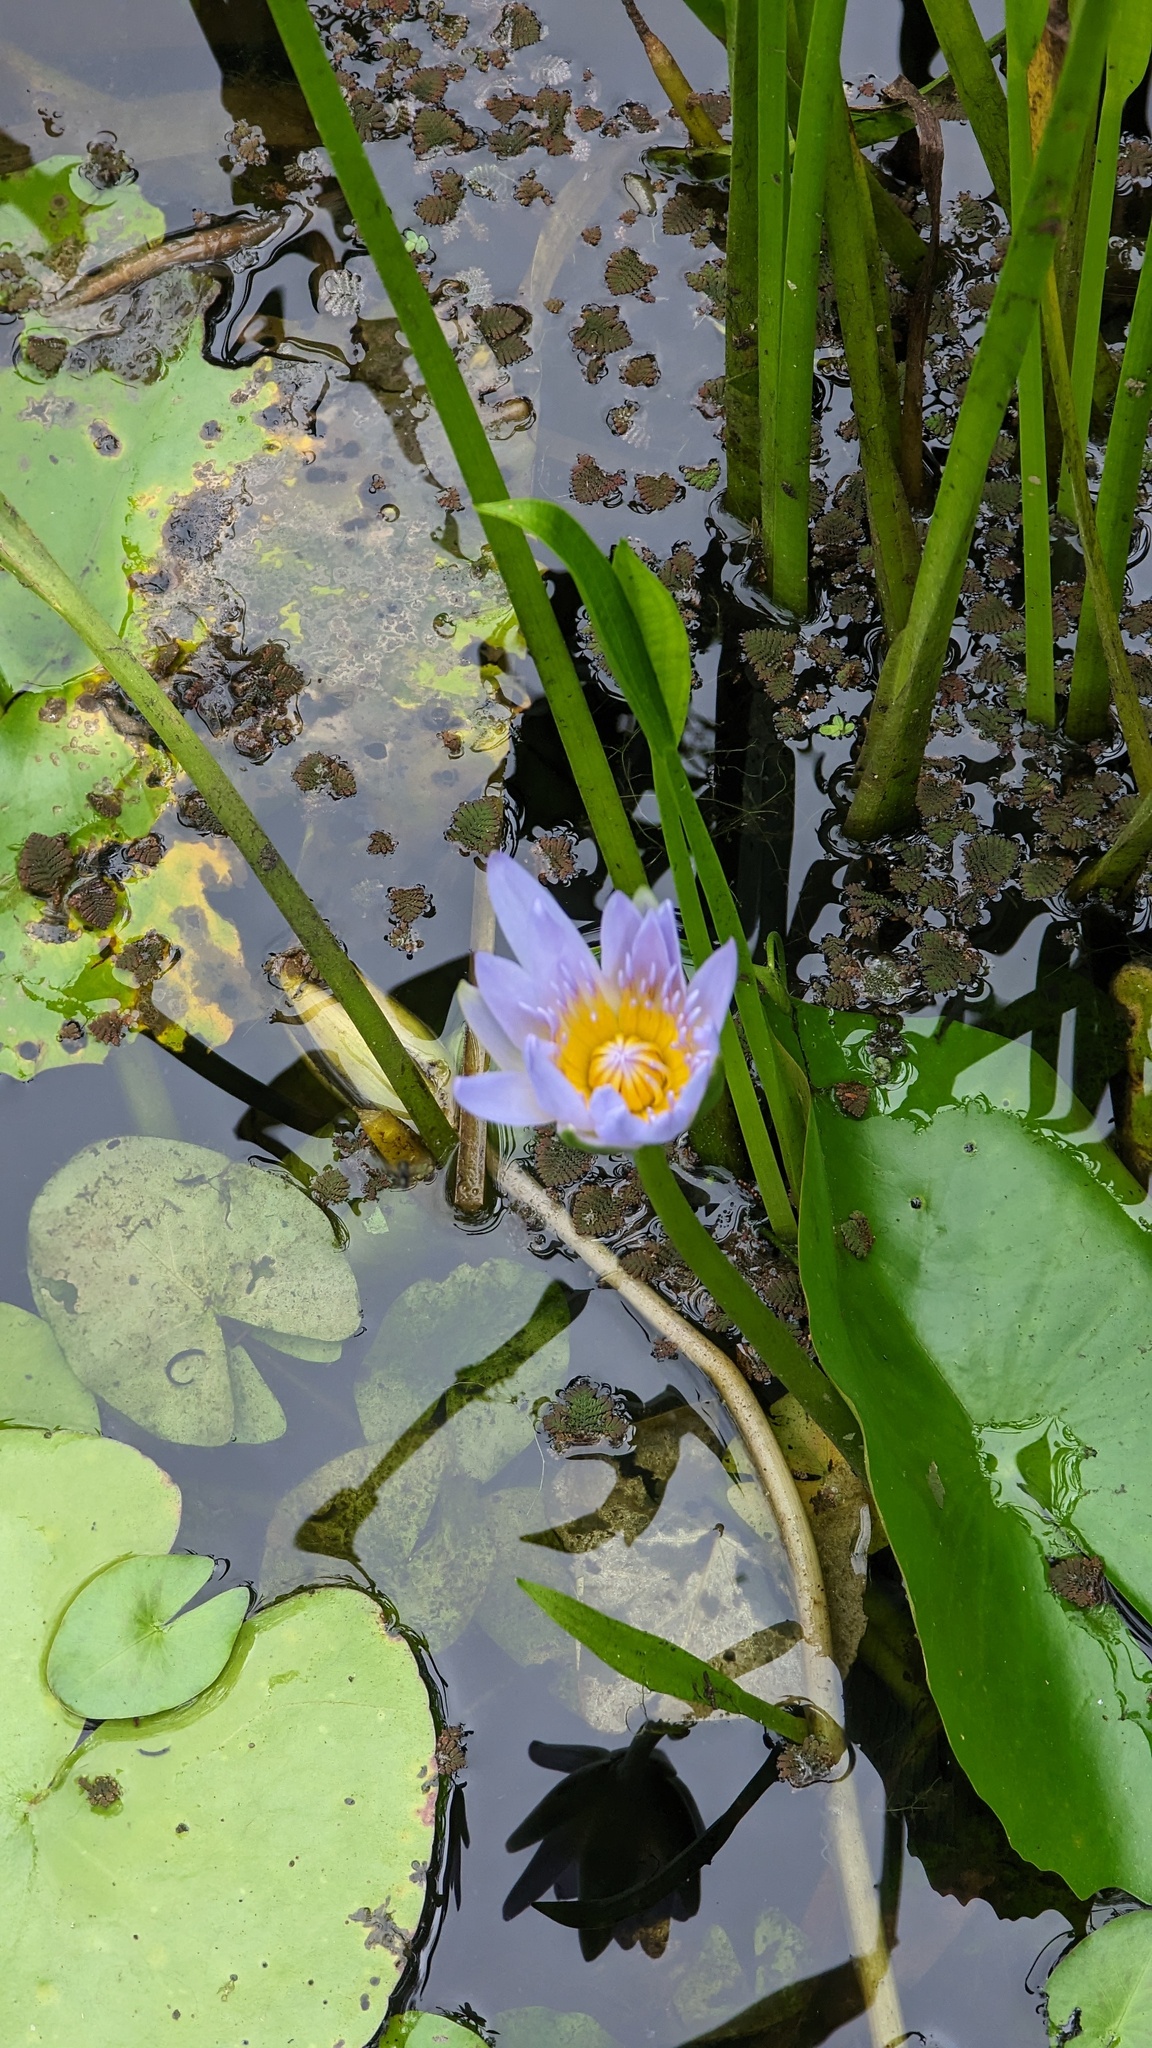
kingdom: Plantae
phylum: Tracheophyta
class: Magnoliopsida
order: Nymphaeales
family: Nymphaeaceae
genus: Nymphaea
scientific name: Nymphaea nouchali
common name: Blue lotus
